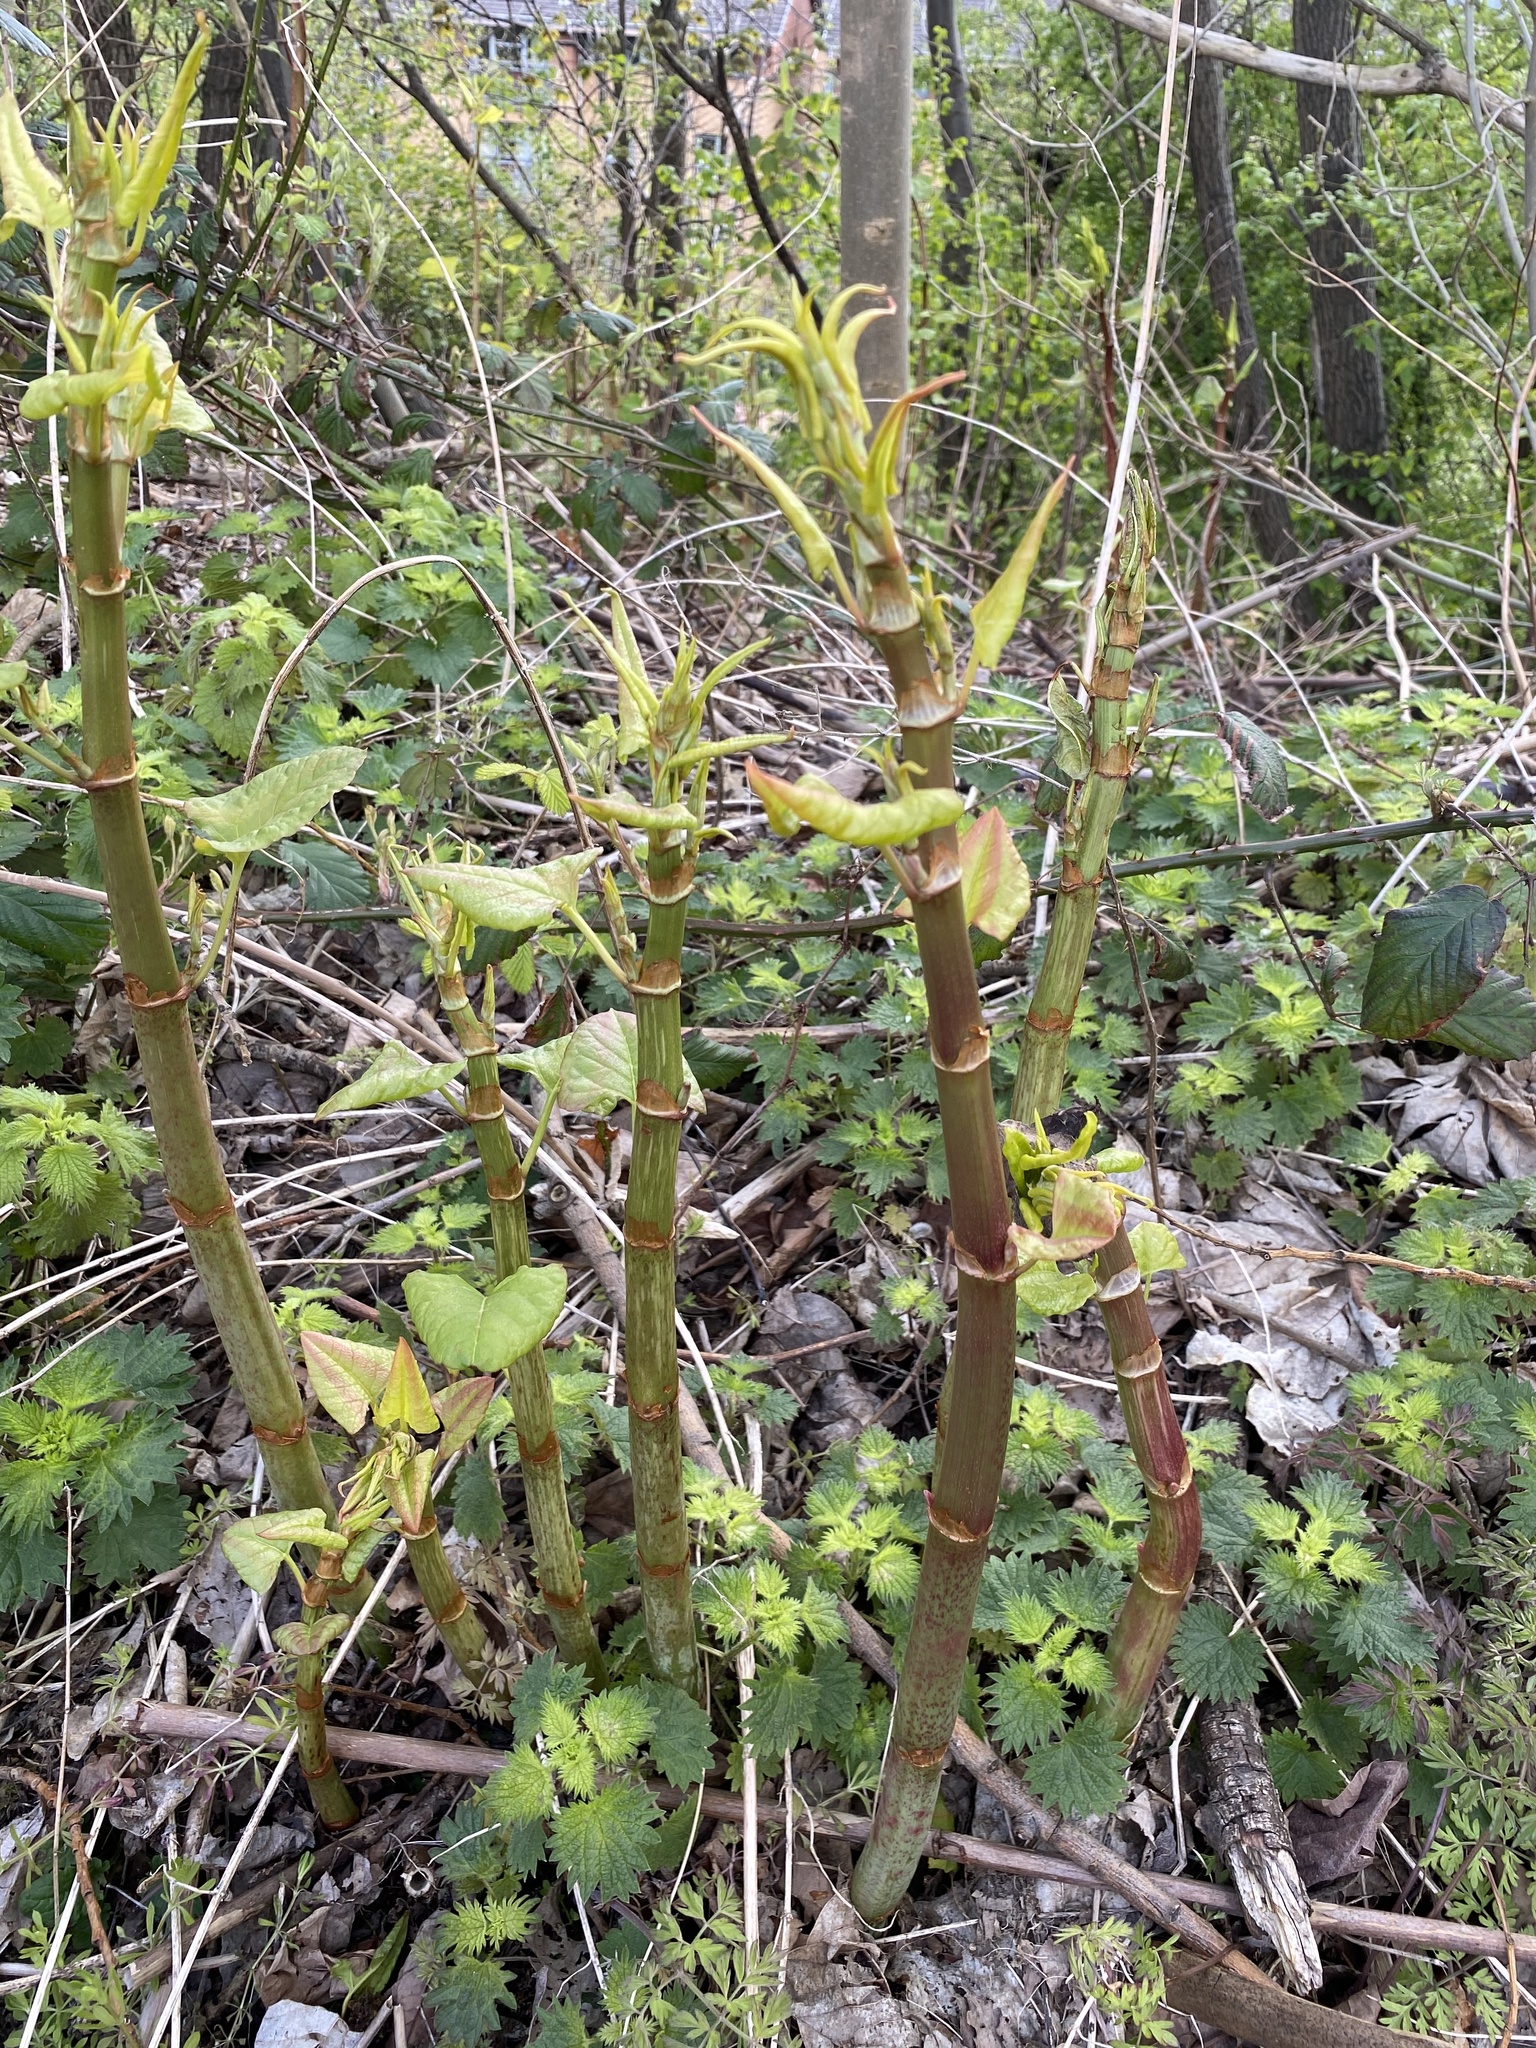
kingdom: Plantae
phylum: Tracheophyta
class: Magnoliopsida
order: Caryophyllales
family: Polygonaceae
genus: Reynoutria
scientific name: Reynoutria japonica
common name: Japanese knotweed
